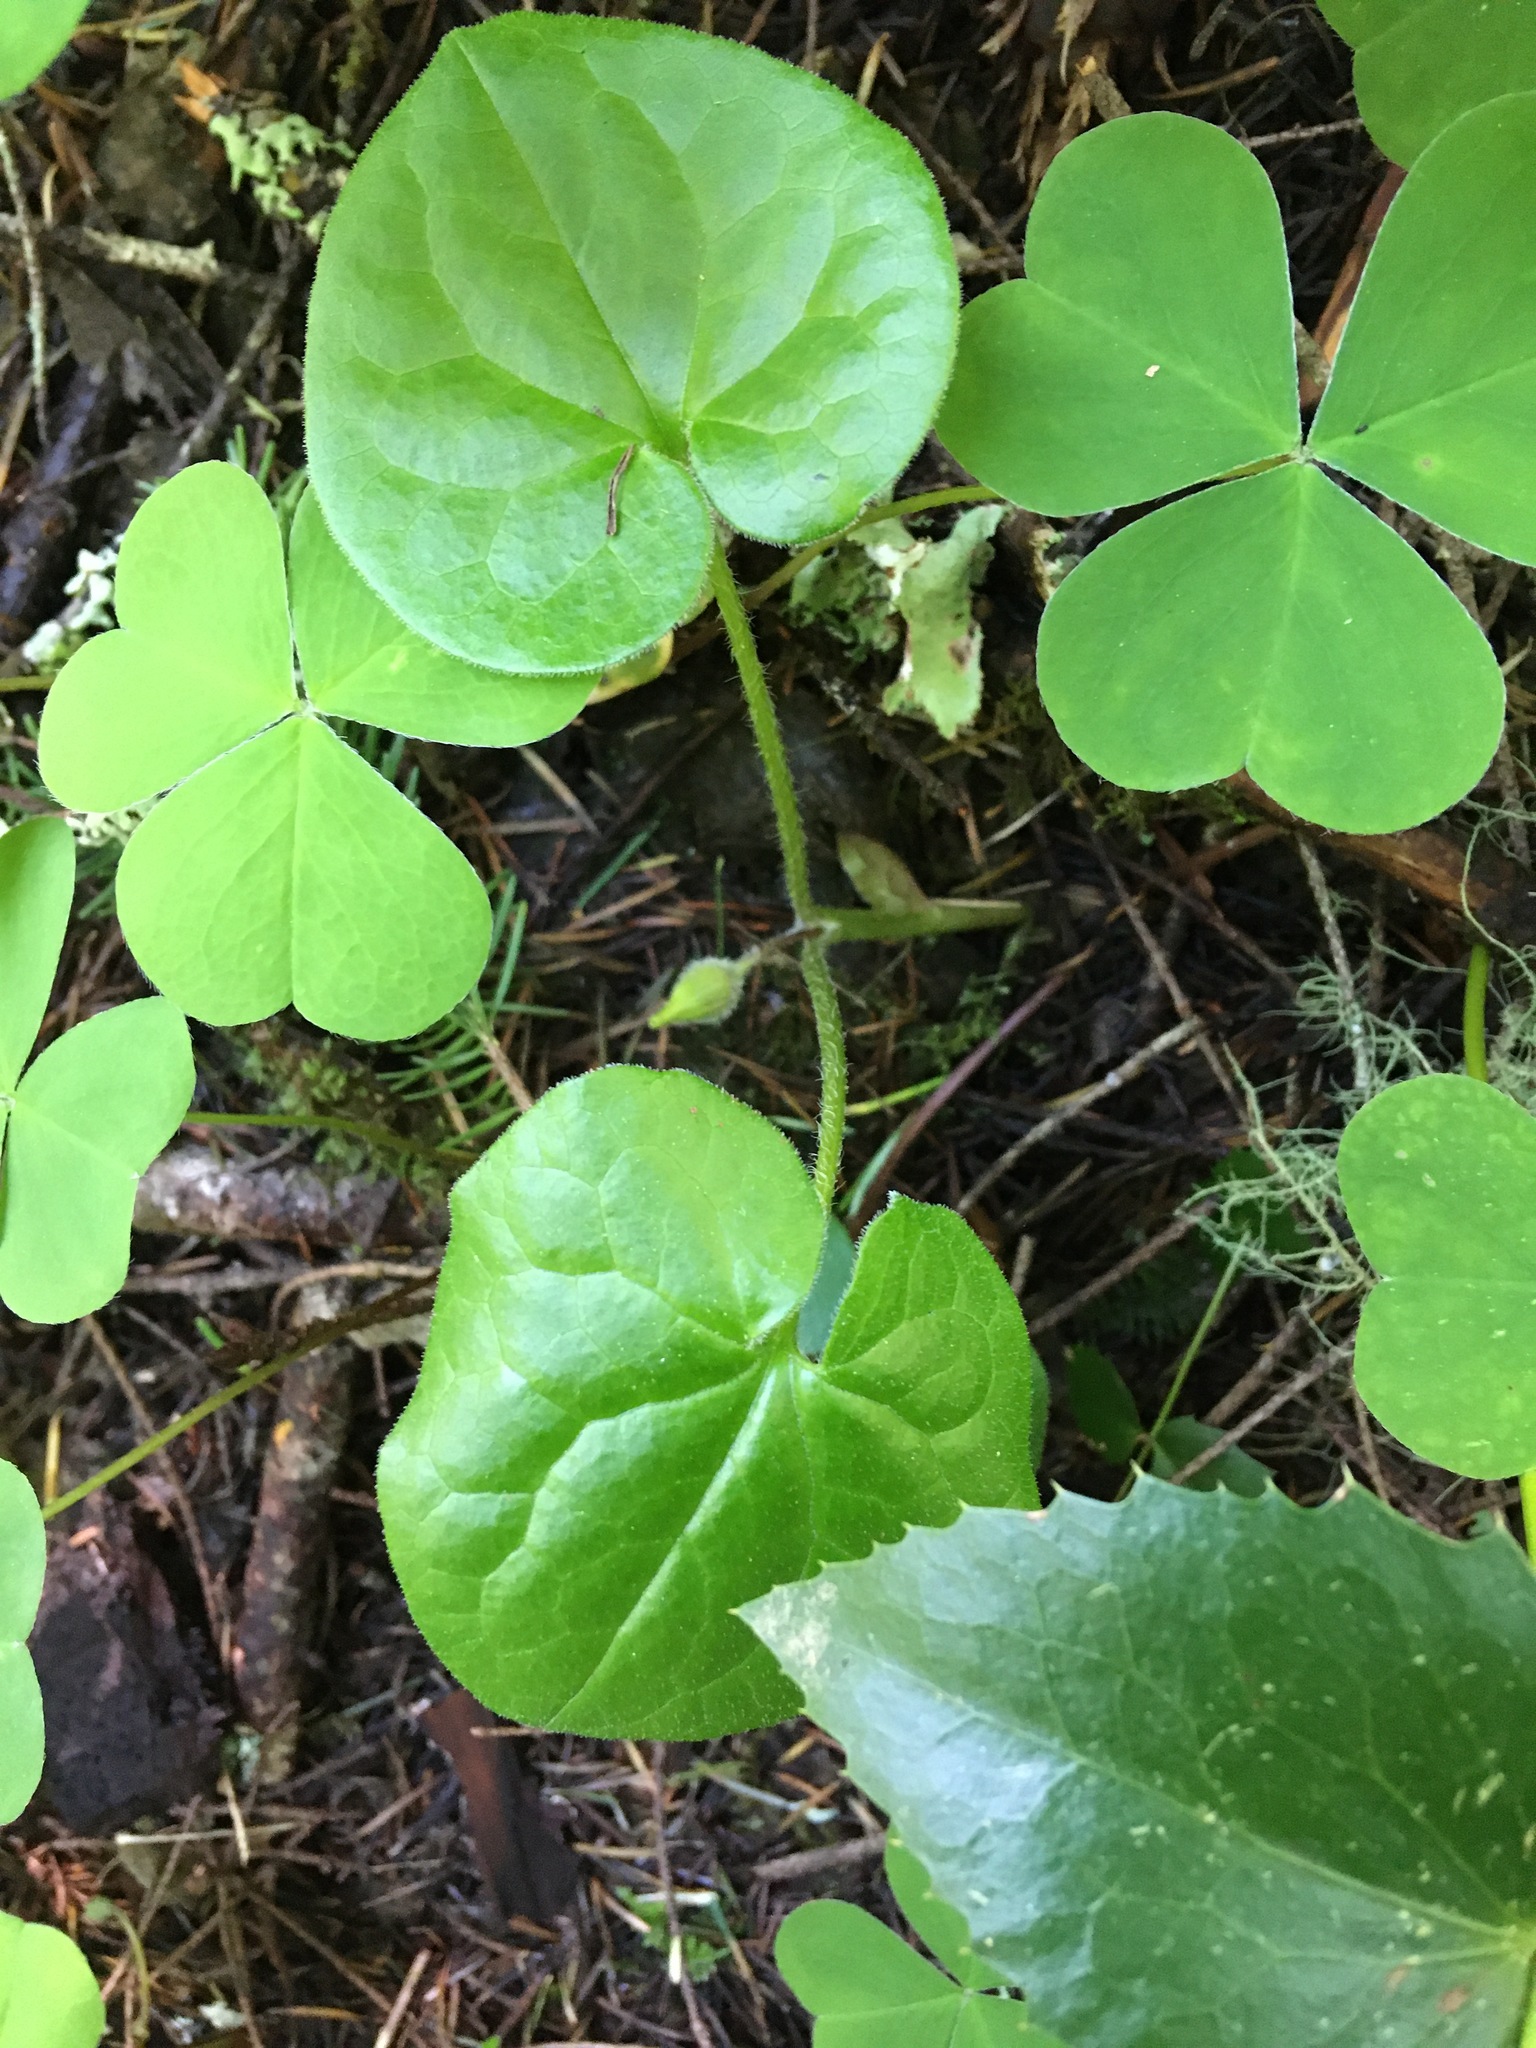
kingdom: Plantae
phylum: Tracheophyta
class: Magnoliopsida
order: Piperales
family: Aristolochiaceae
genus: Asarum
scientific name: Asarum caudatum
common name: Wild ginger
